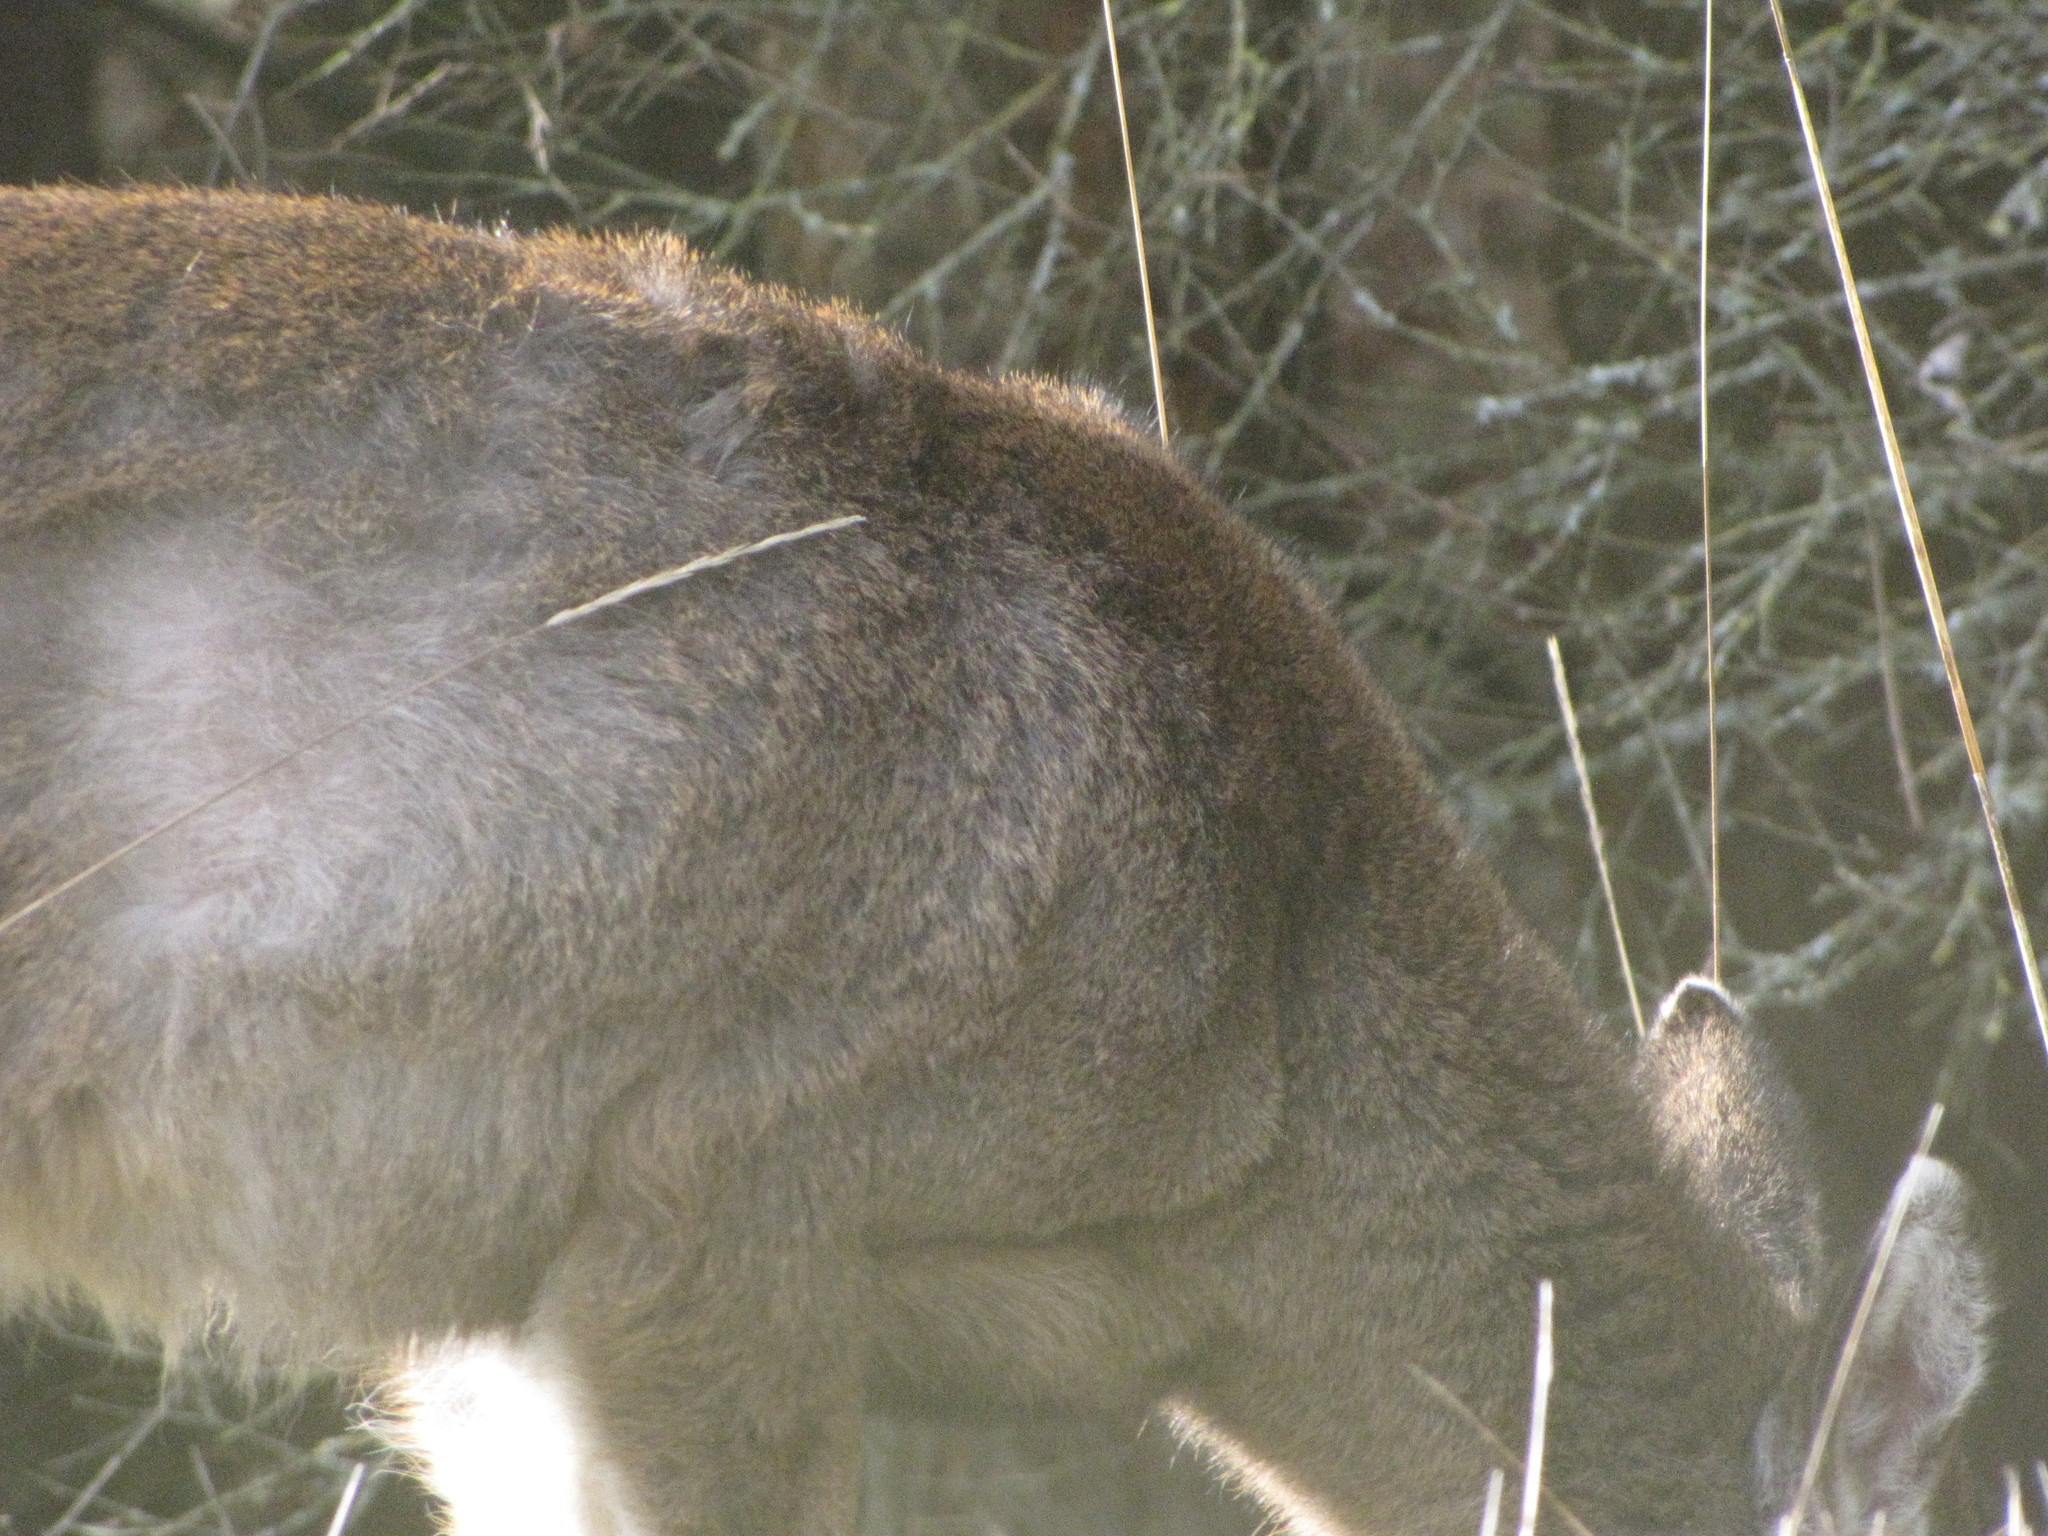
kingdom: Animalia
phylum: Chordata
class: Mammalia
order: Artiodactyla
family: Cervidae
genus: Odocoileus
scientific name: Odocoileus hemionus
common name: Mule deer
